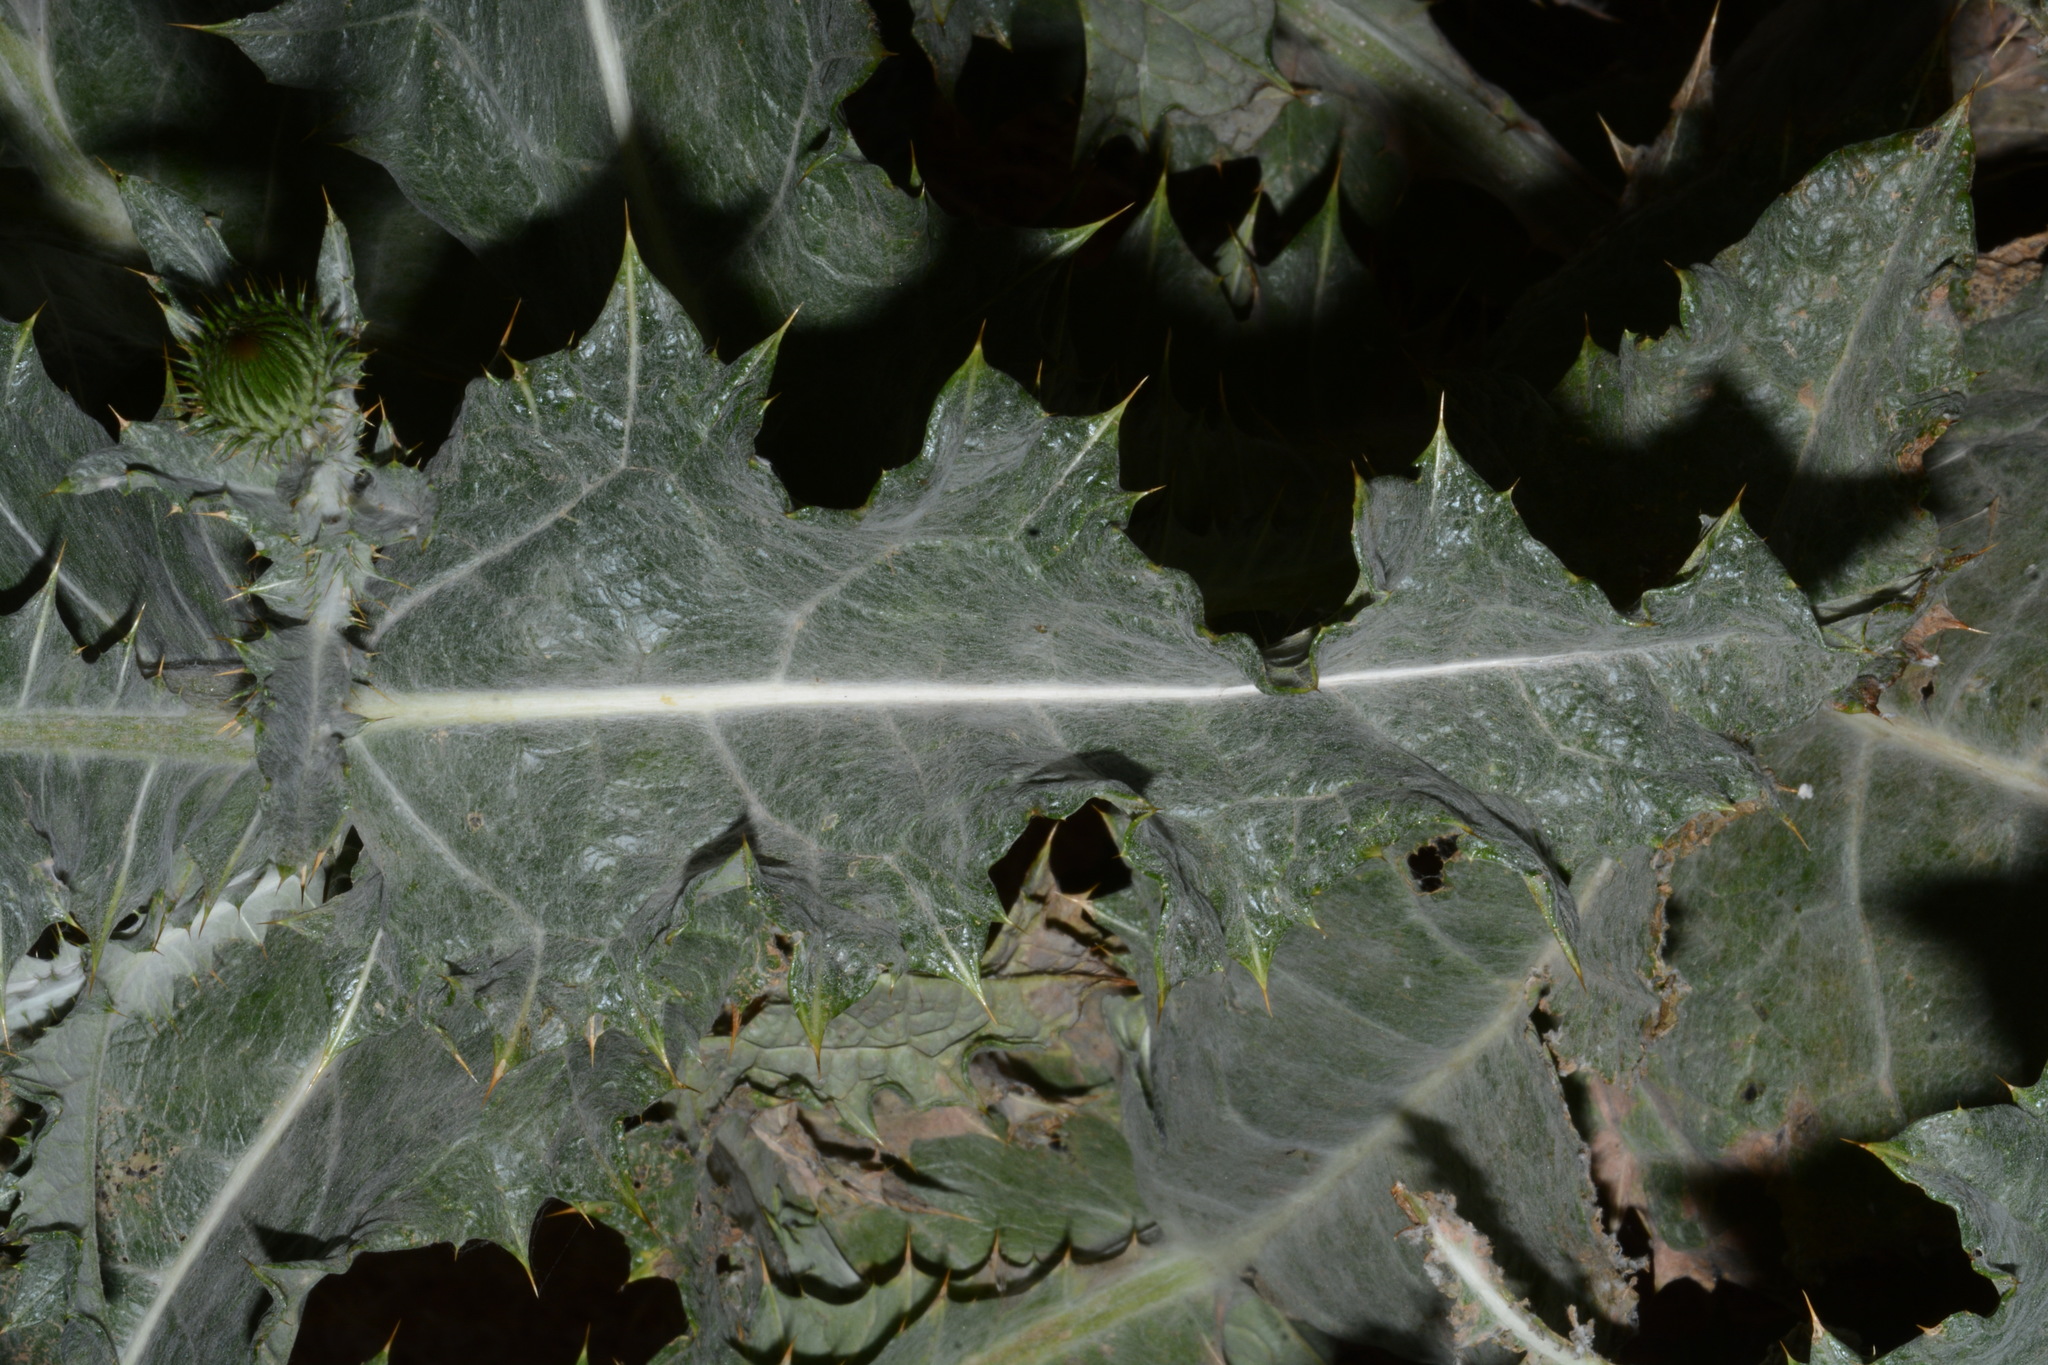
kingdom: Plantae
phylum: Tracheophyta
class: Magnoliopsida
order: Asterales
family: Asteraceae
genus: Onopordum
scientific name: Onopordum acanthium
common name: Scotch thistle
